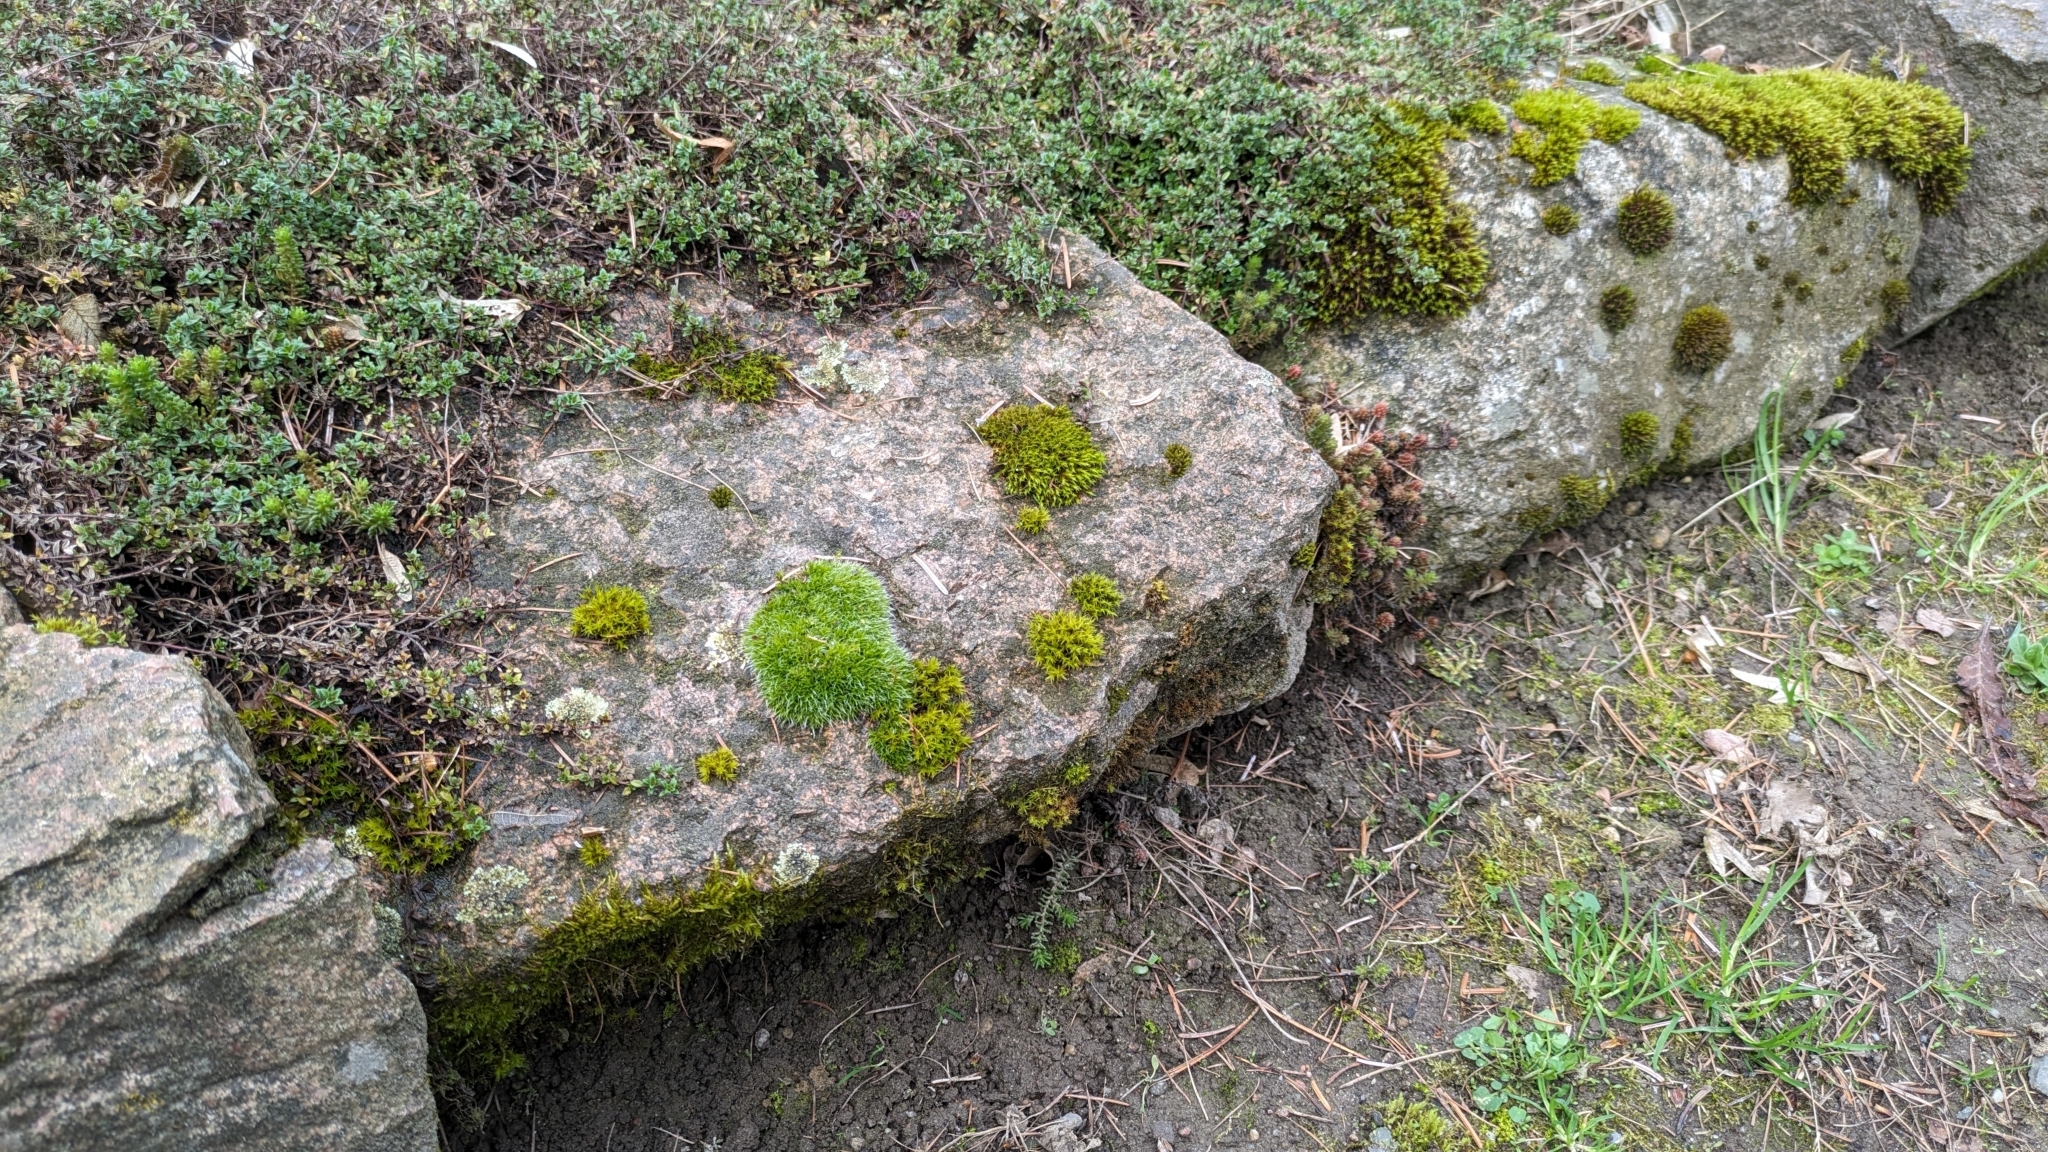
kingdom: Plantae
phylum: Bryophyta
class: Bryopsida
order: Grimmiales
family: Grimmiaceae
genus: Grimmia
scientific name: Grimmia pulvinata
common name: Grey-cushioned grimmia
